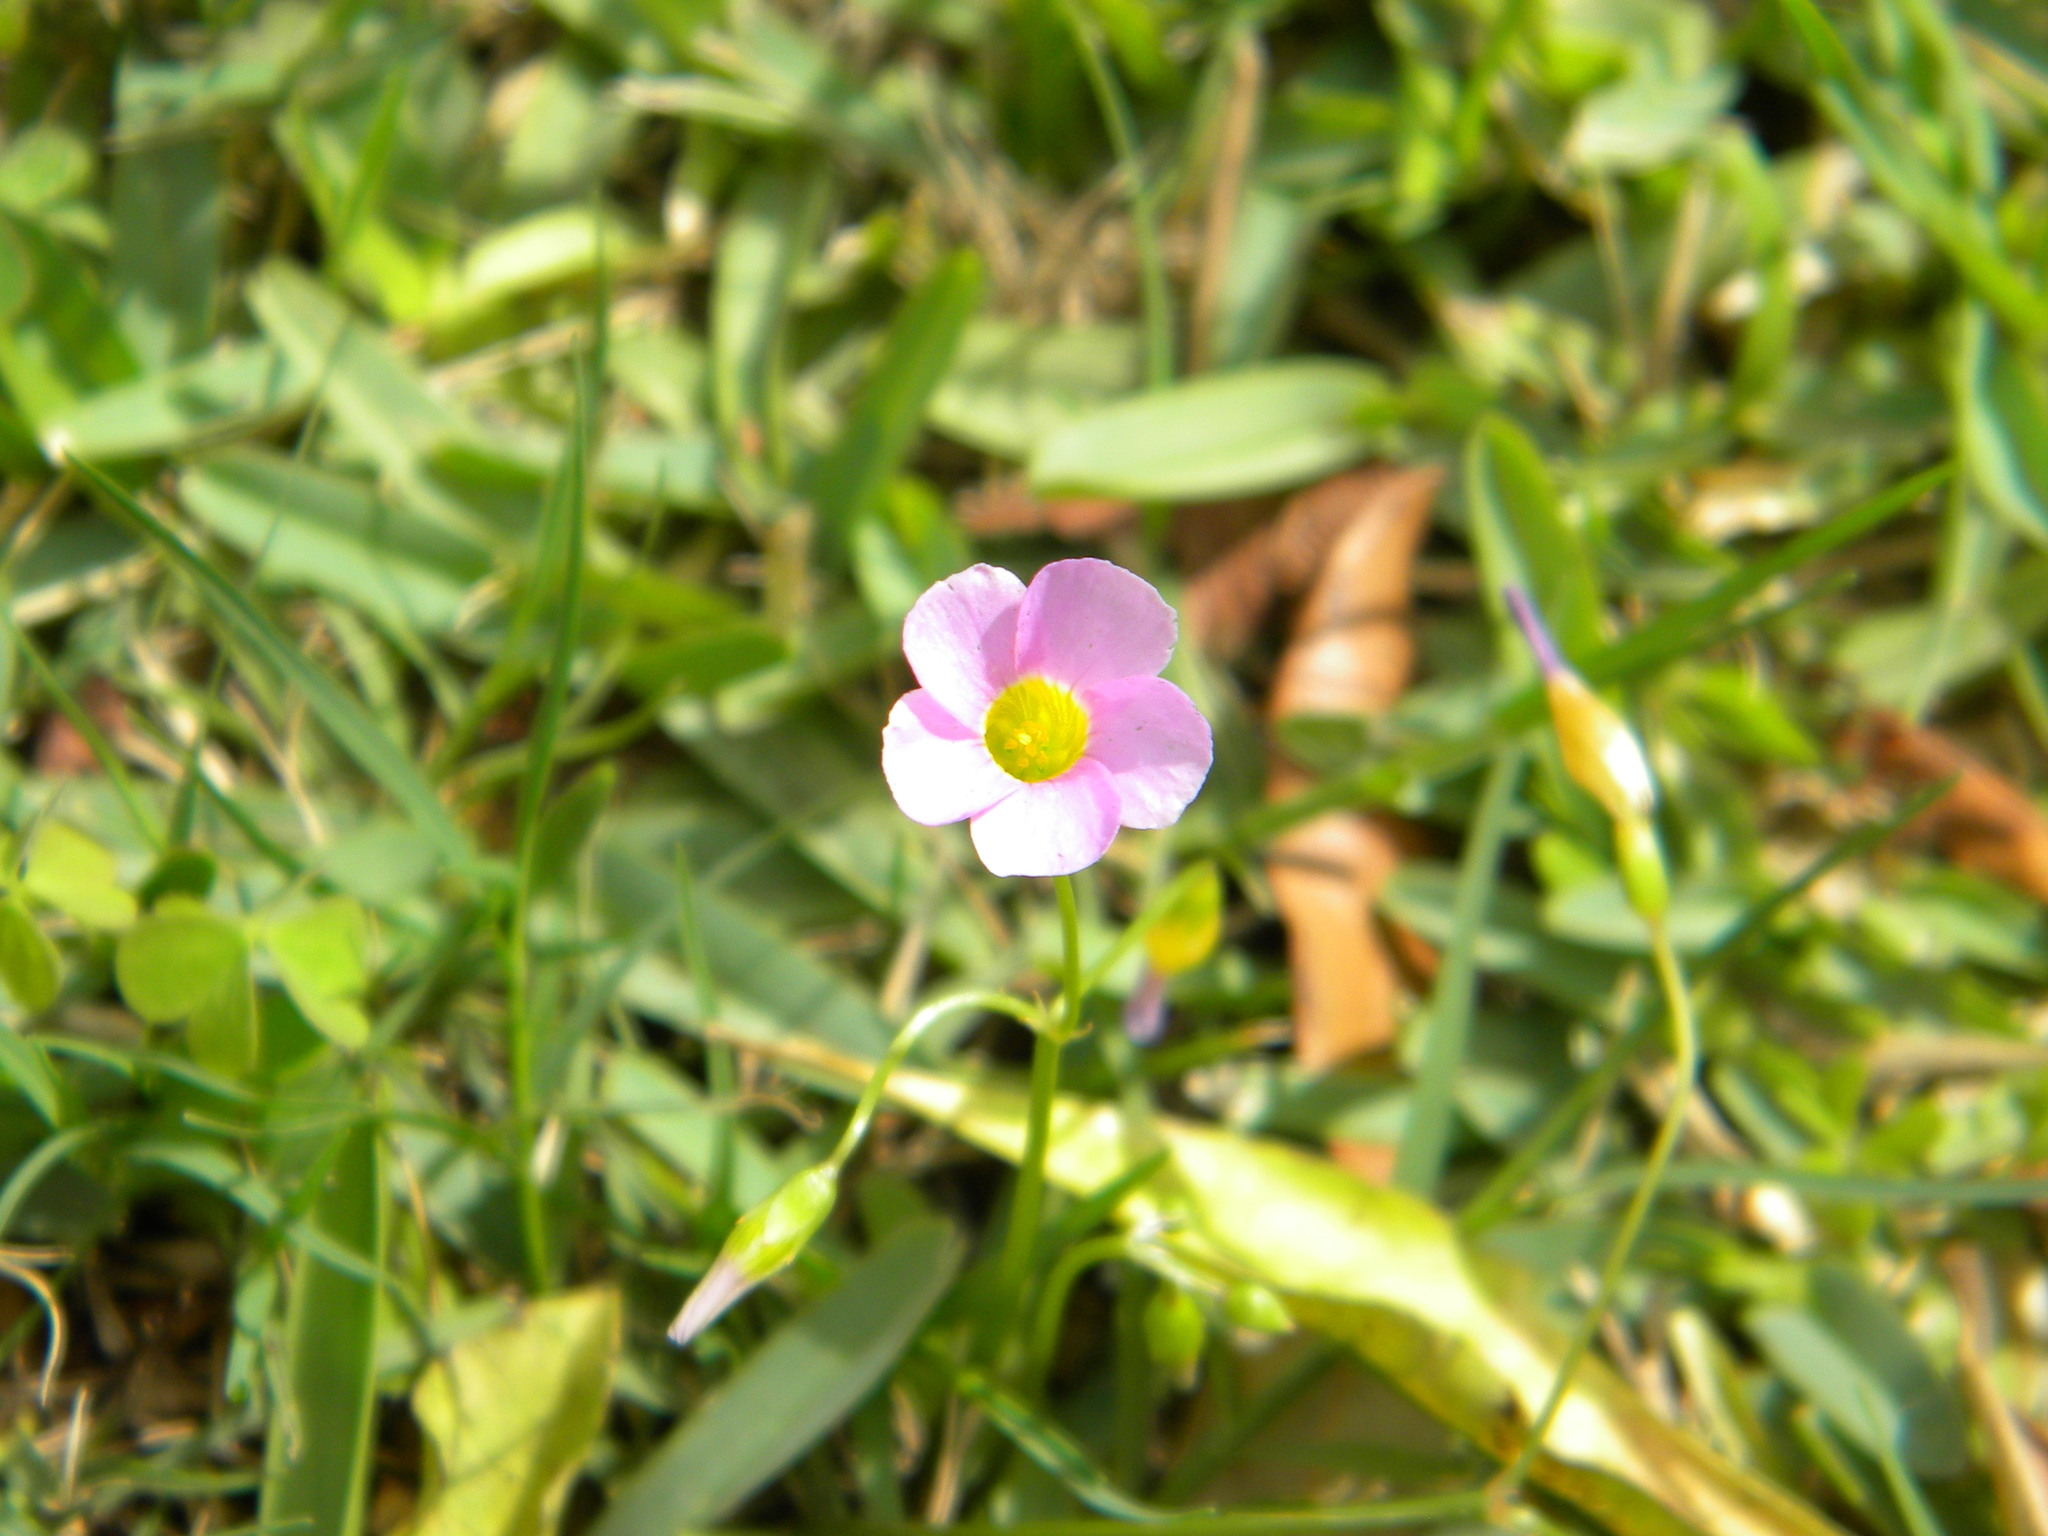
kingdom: Plantae
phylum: Tracheophyta
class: Magnoliopsida
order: Oxalidales
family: Oxalidaceae
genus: Oxalis
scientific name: Oxalis caprina
